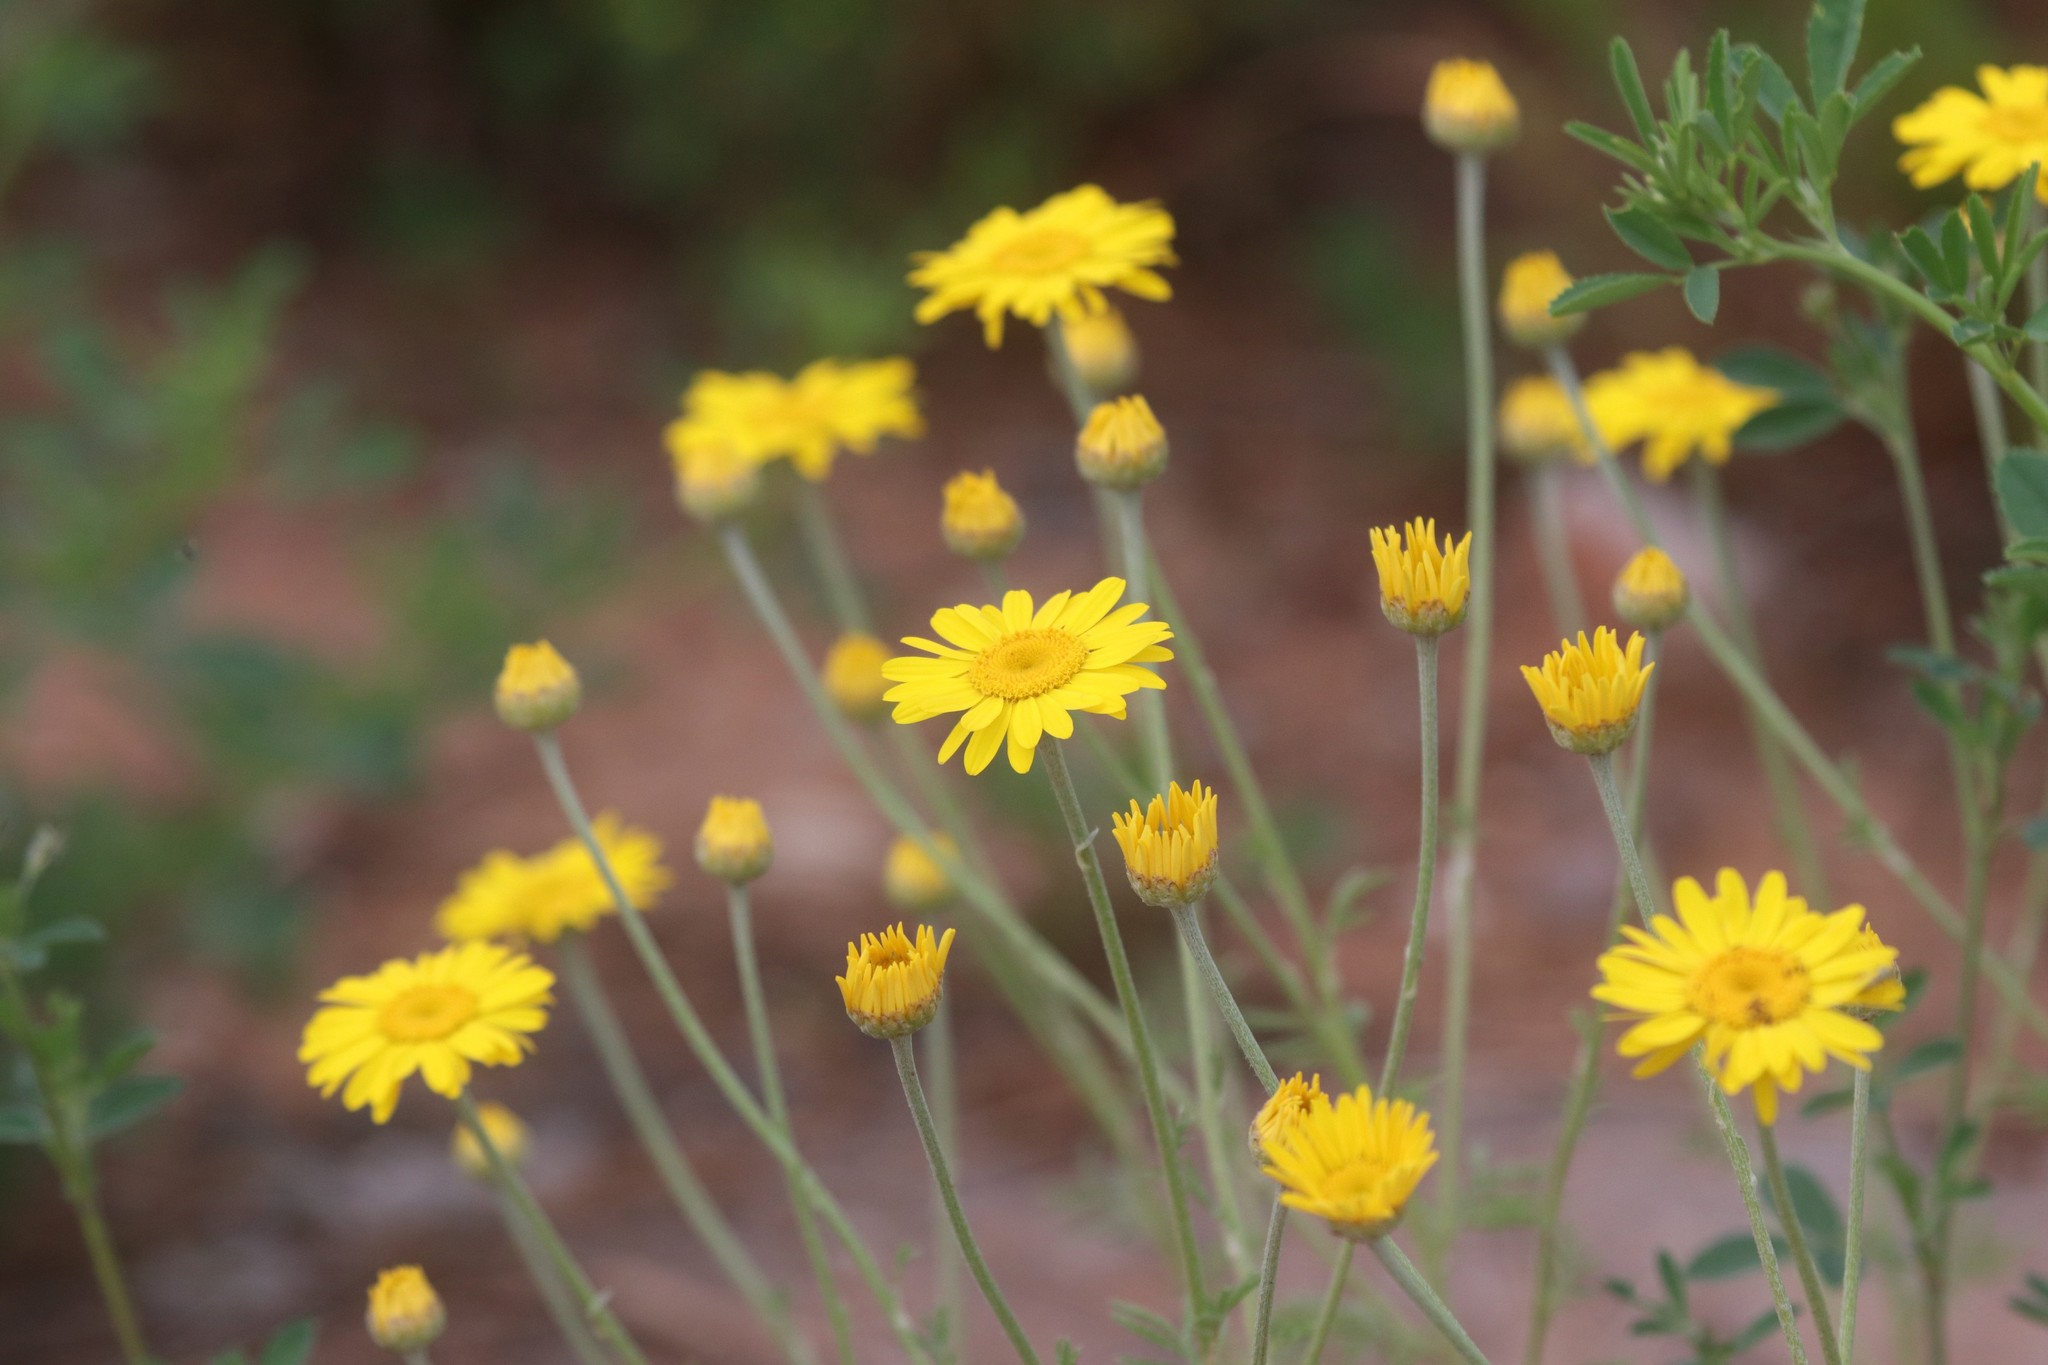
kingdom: Plantae
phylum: Tracheophyta
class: Magnoliopsida
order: Asterales
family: Asteraceae
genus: Cota
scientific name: Cota tinctoria
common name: Golden chamomile
